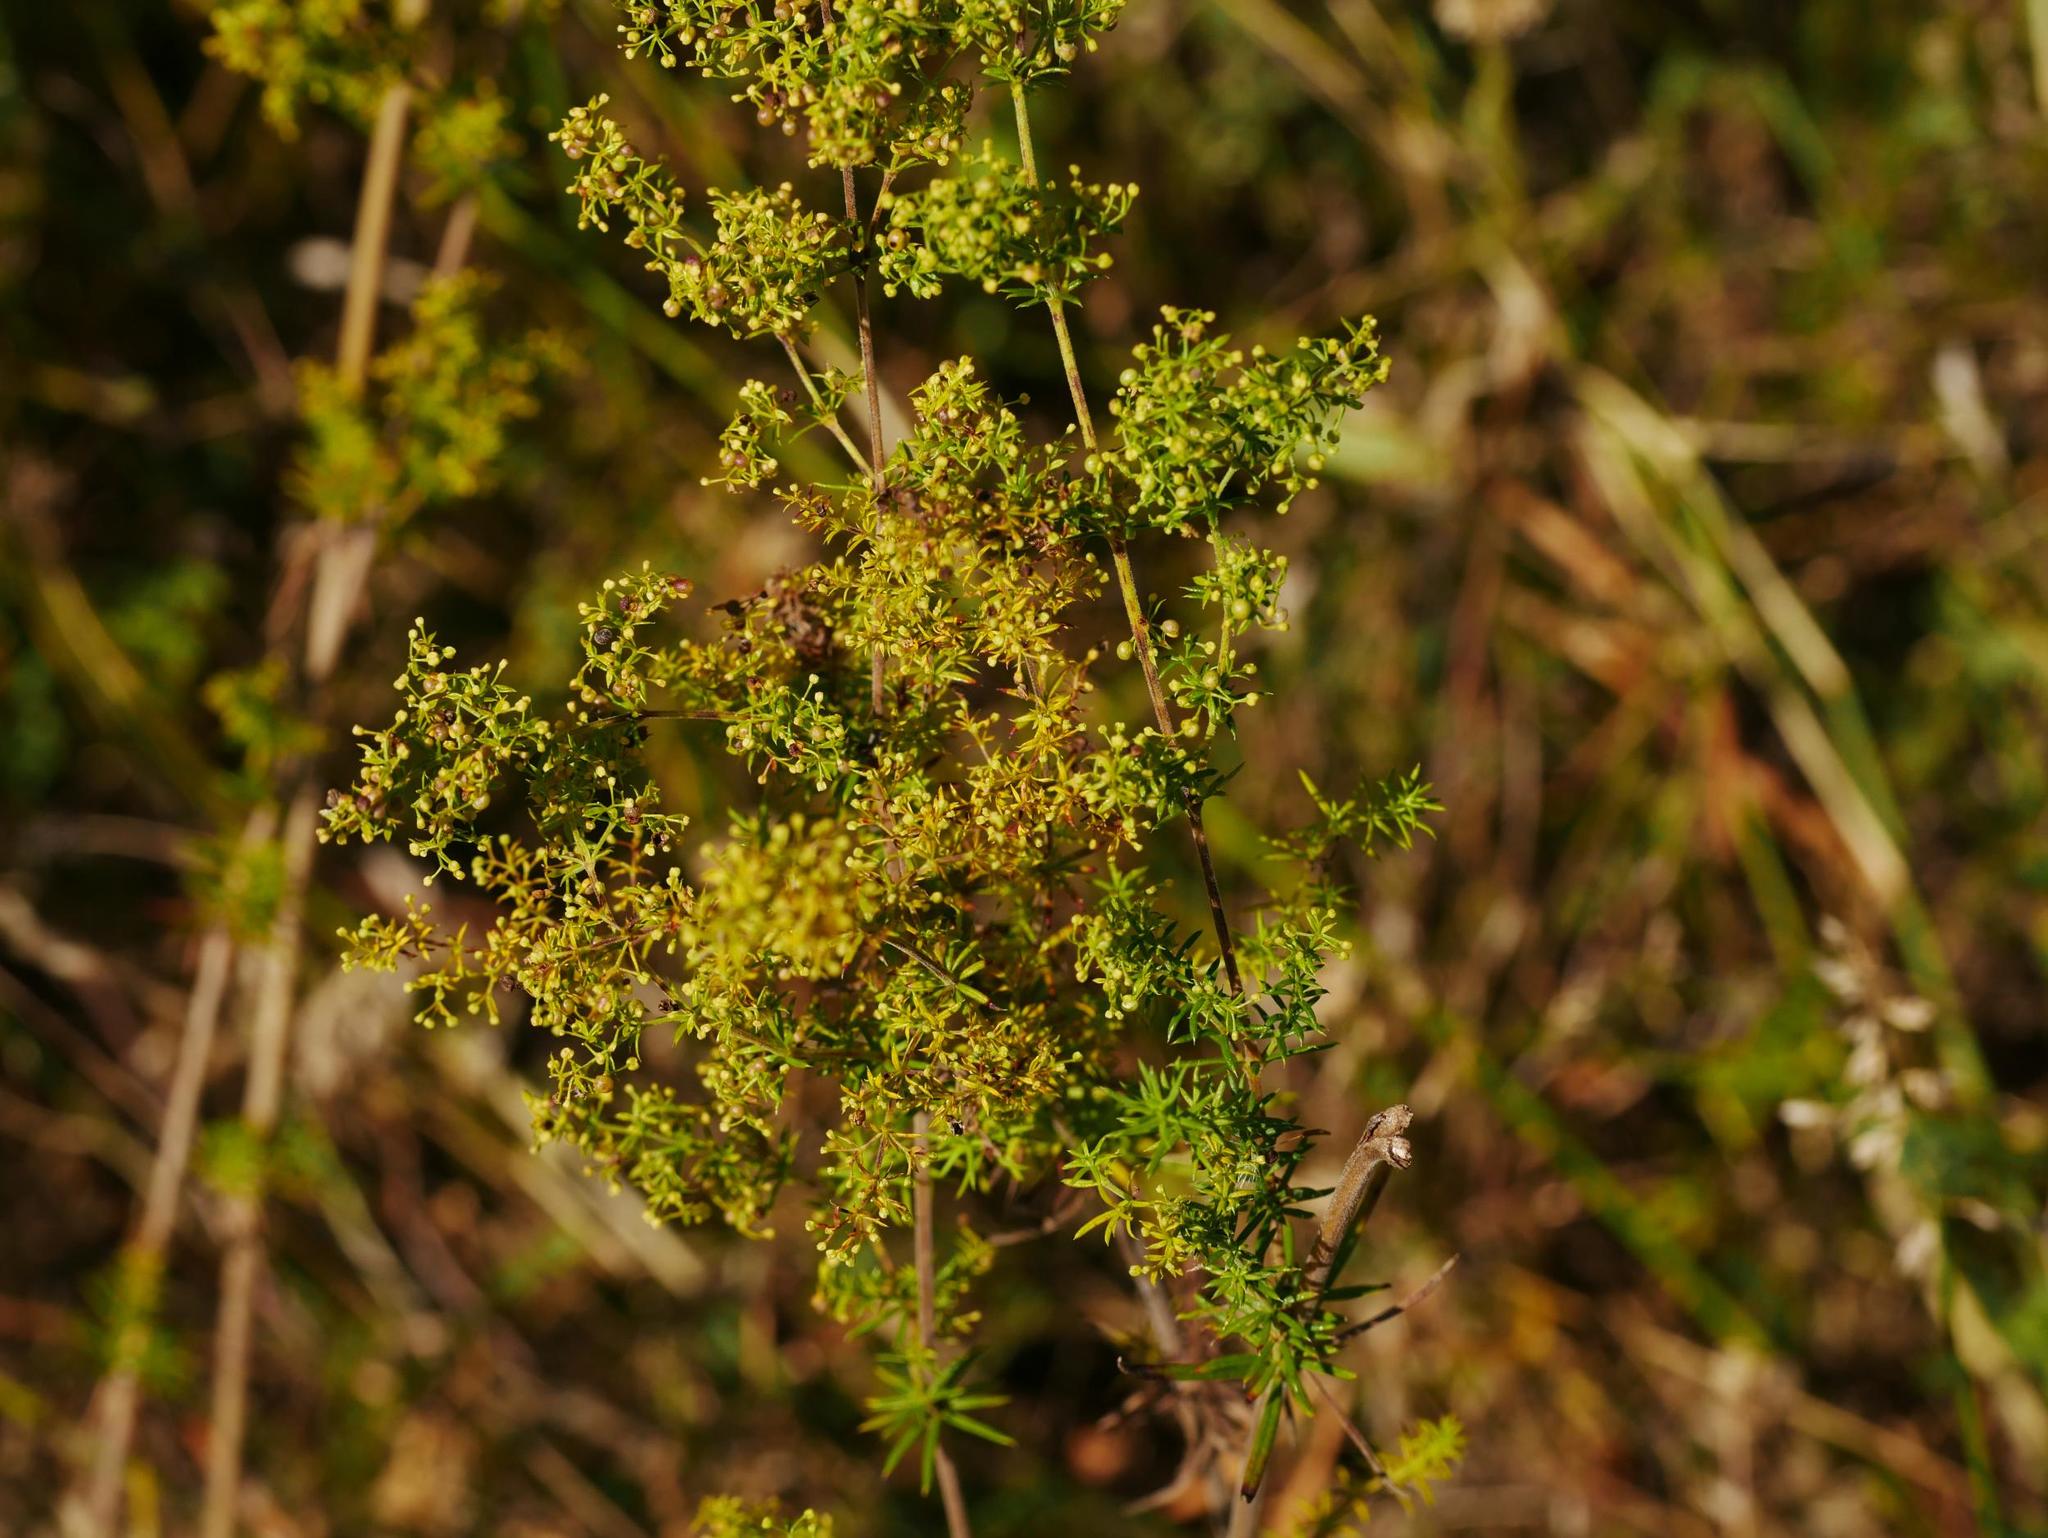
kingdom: Plantae
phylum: Tracheophyta
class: Magnoliopsida
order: Gentianales
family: Rubiaceae
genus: Galium
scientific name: Galium verum
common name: Lady's bedstraw
